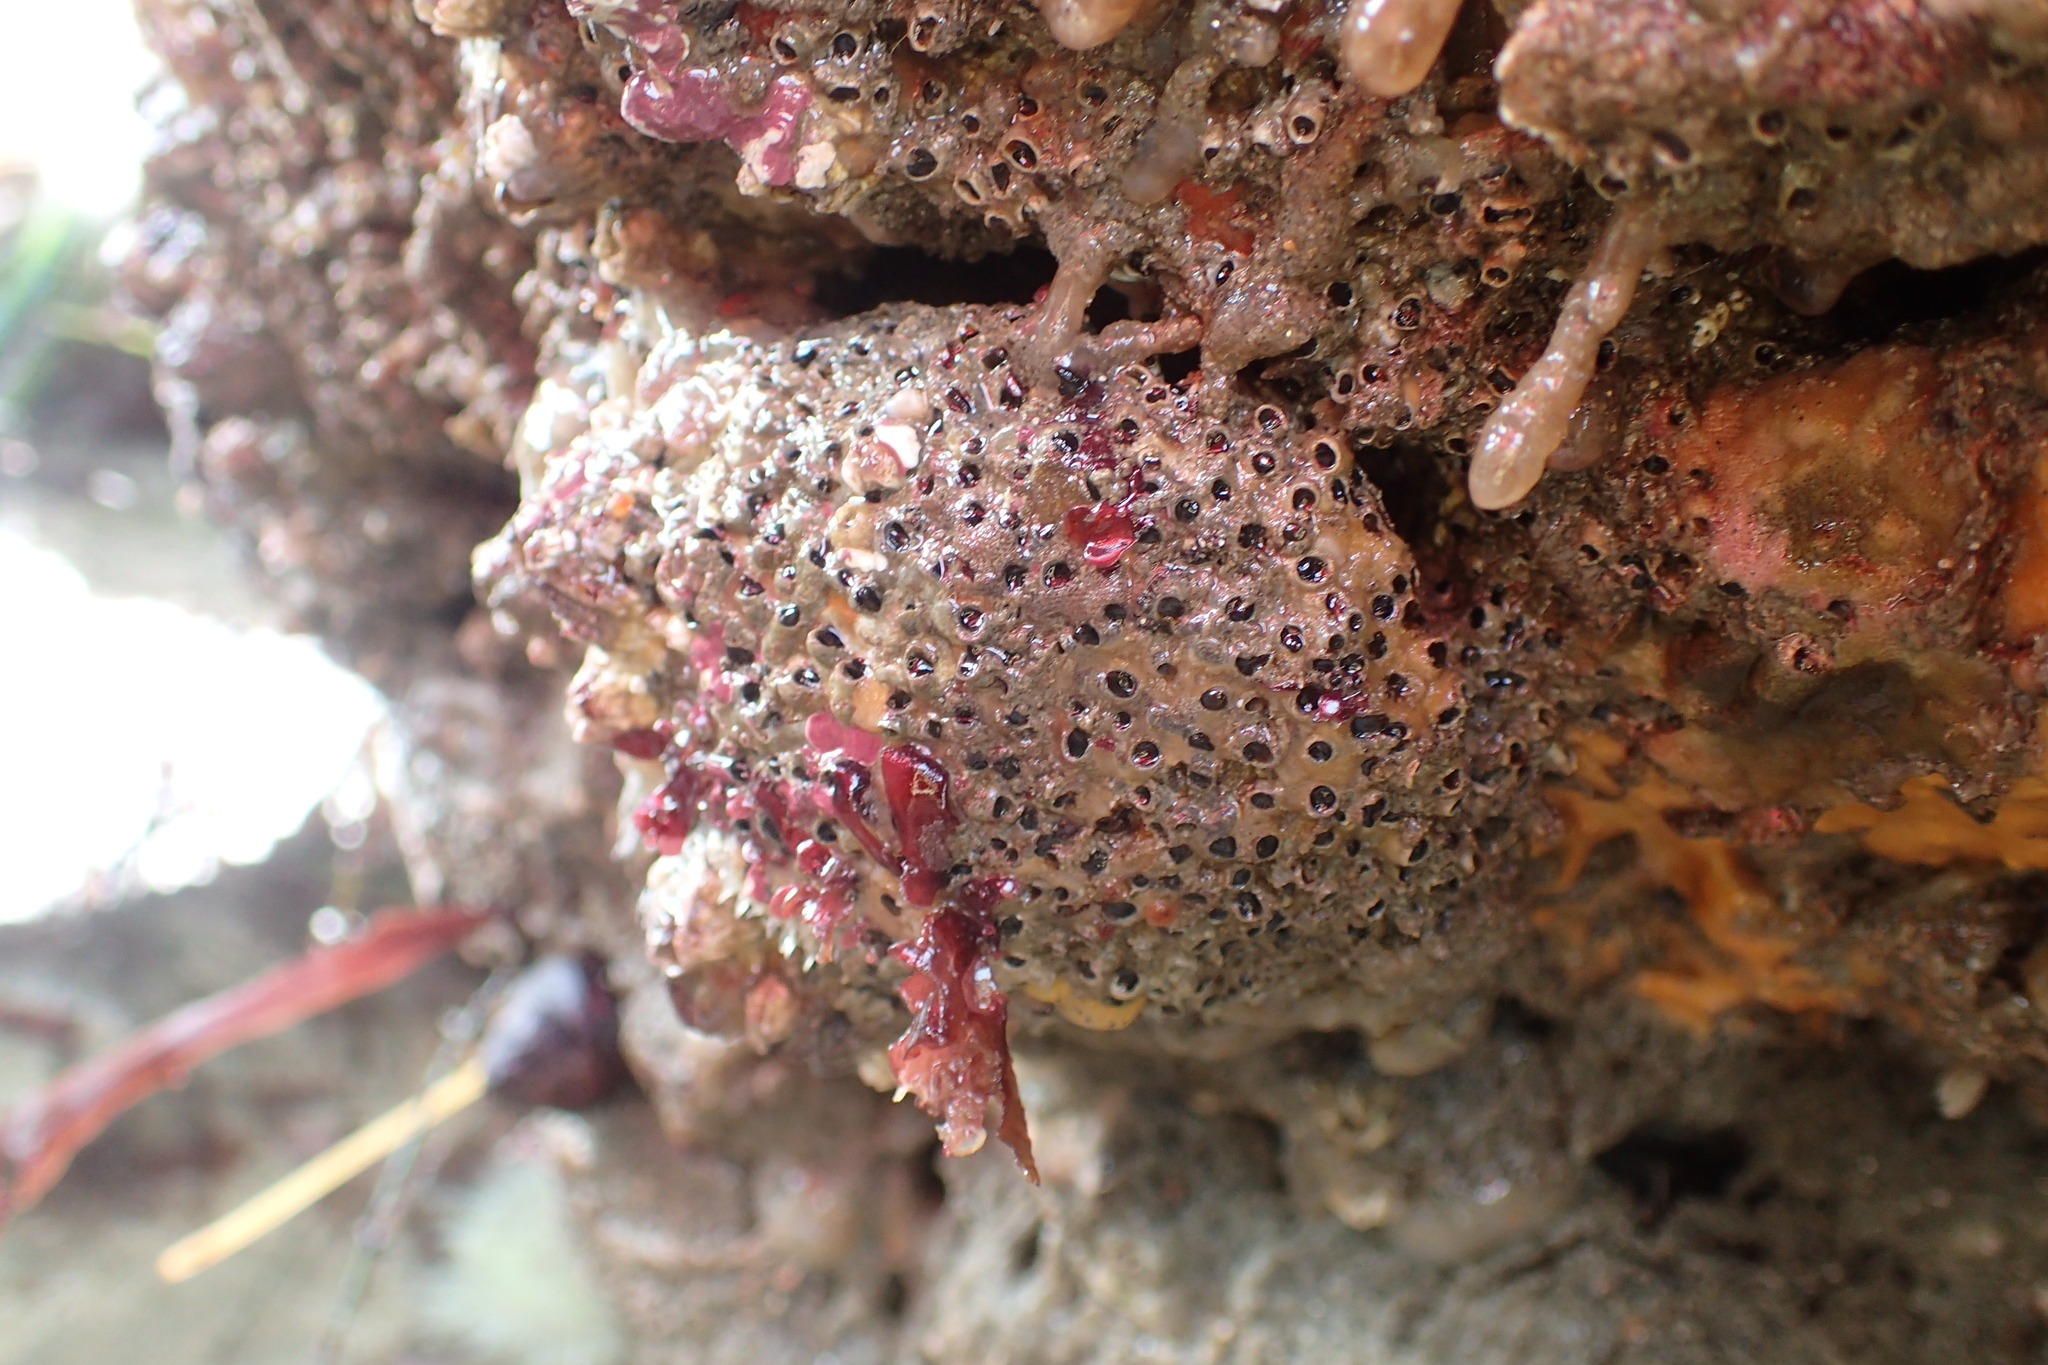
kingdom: Animalia
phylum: Annelida
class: Polychaeta
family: Cirratulidae
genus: Dodecaceria
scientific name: Dodecaceria pacifica
